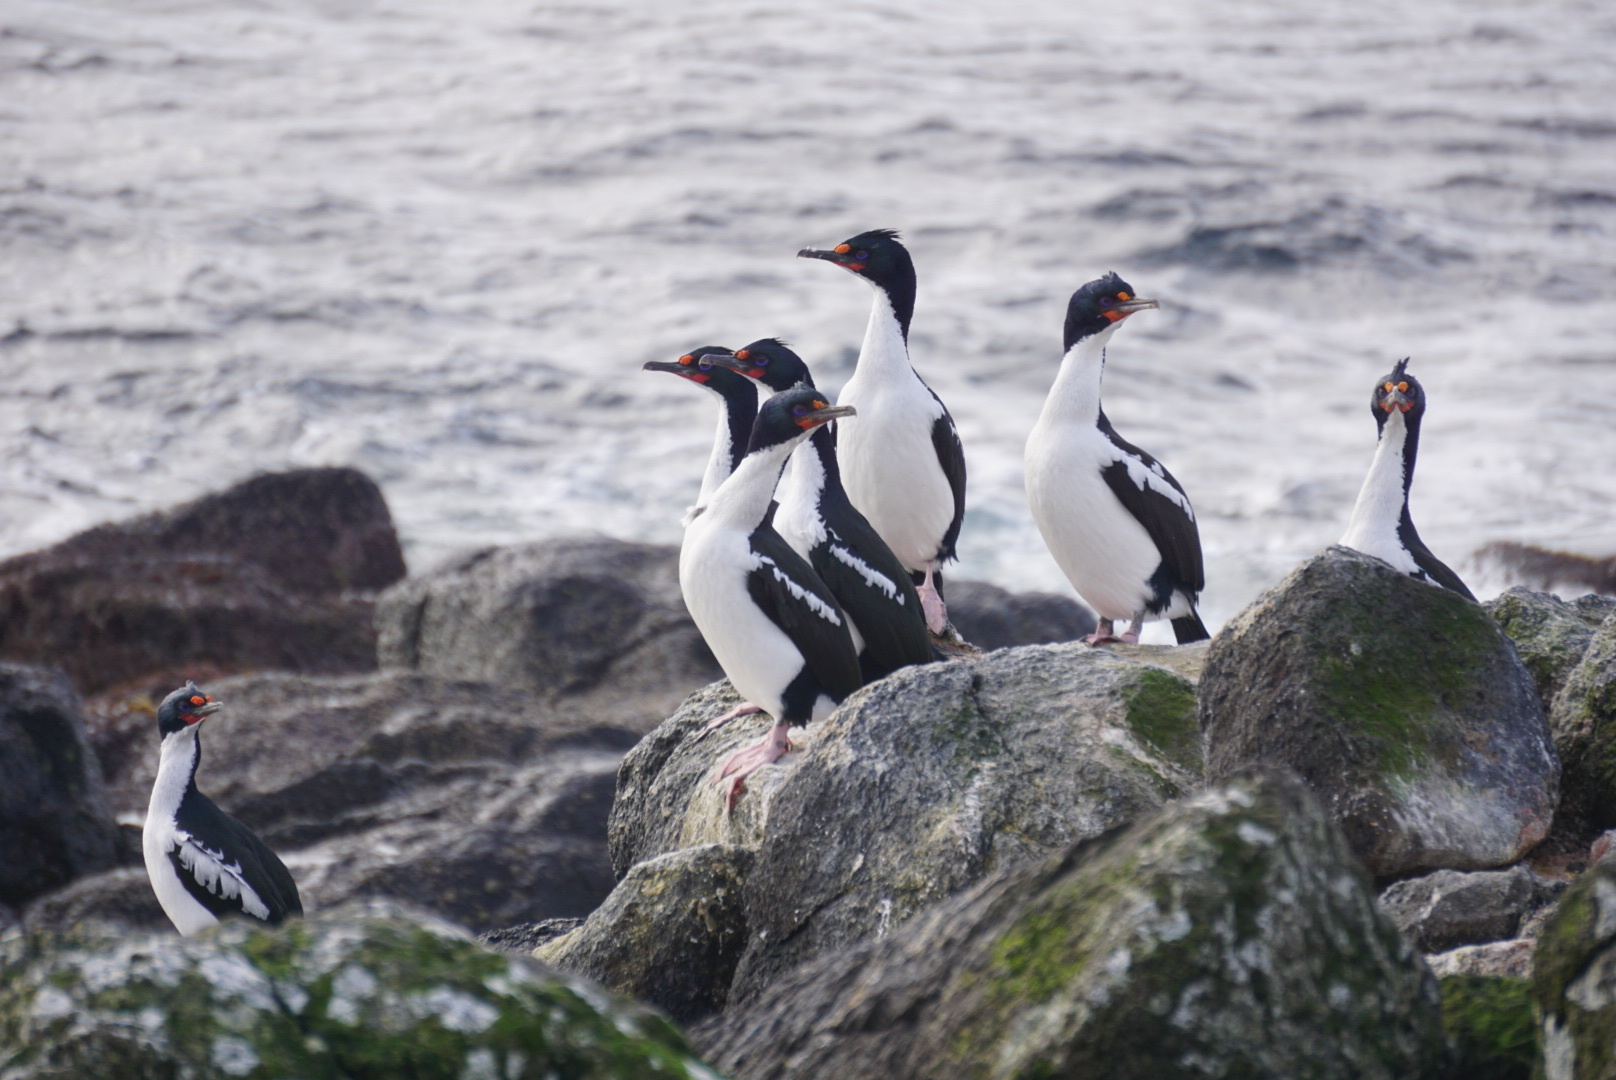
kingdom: Animalia
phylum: Chordata
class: Aves
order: Suliformes
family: Phalacrocoracidae
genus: Leucocarbo
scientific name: Leucocarbo onslowi
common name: Chatham shag
